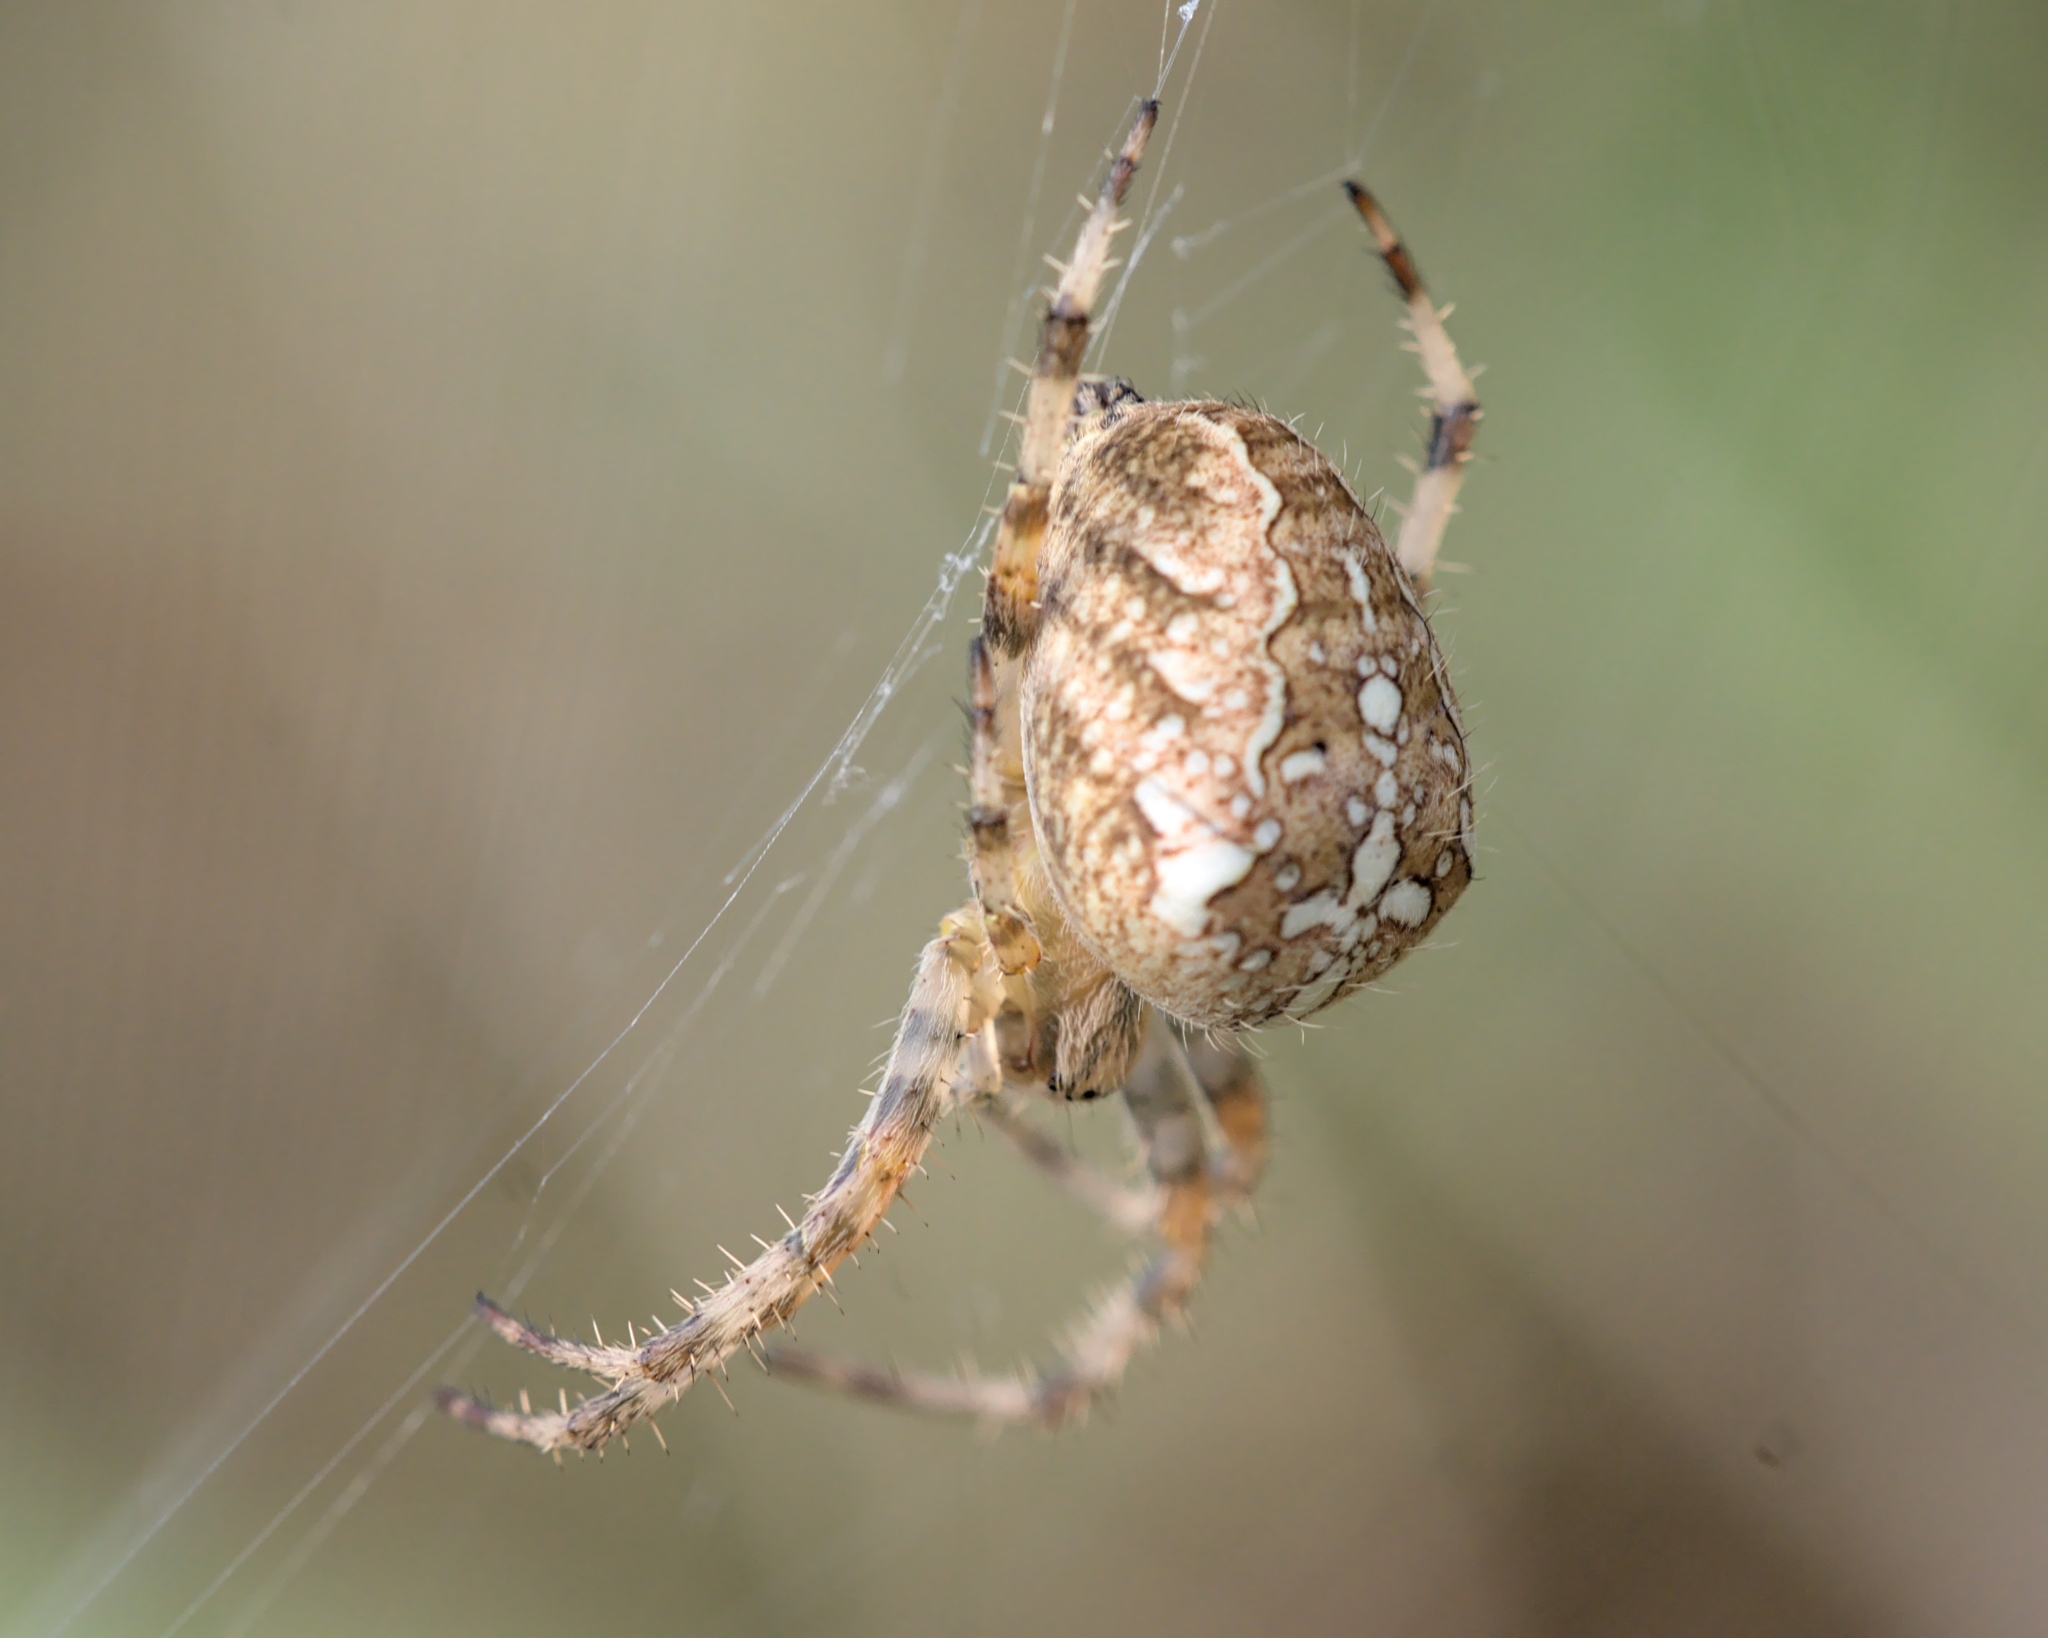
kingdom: Animalia
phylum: Arthropoda
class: Arachnida
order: Araneae
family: Araneidae
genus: Araneus
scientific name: Araneus diadematus
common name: Cross orbweaver
